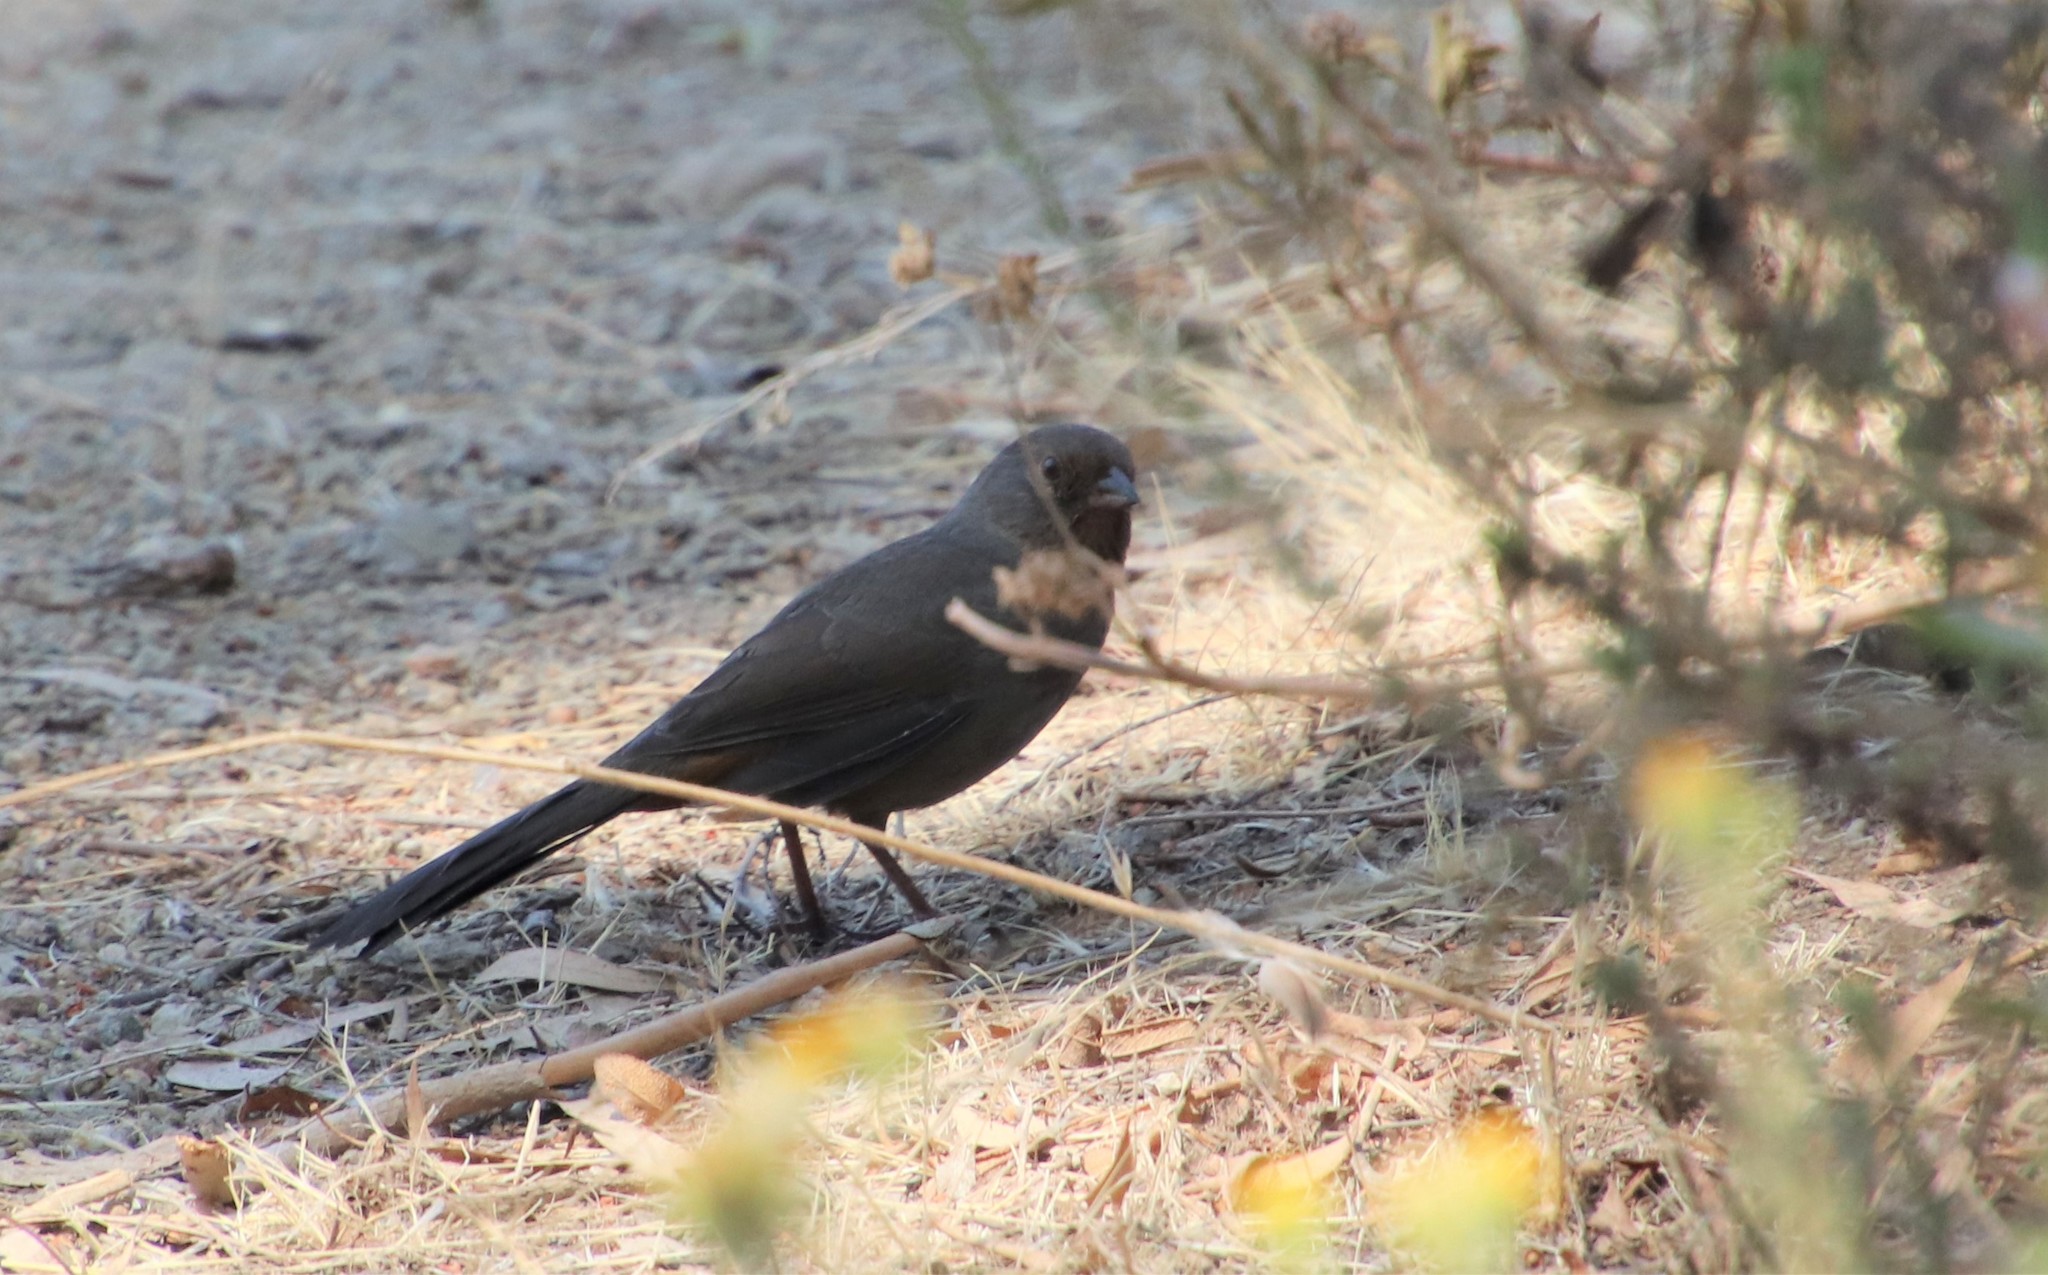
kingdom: Animalia
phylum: Chordata
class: Aves
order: Passeriformes
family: Passerellidae
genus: Melozone
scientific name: Melozone crissalis
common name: California towhee
